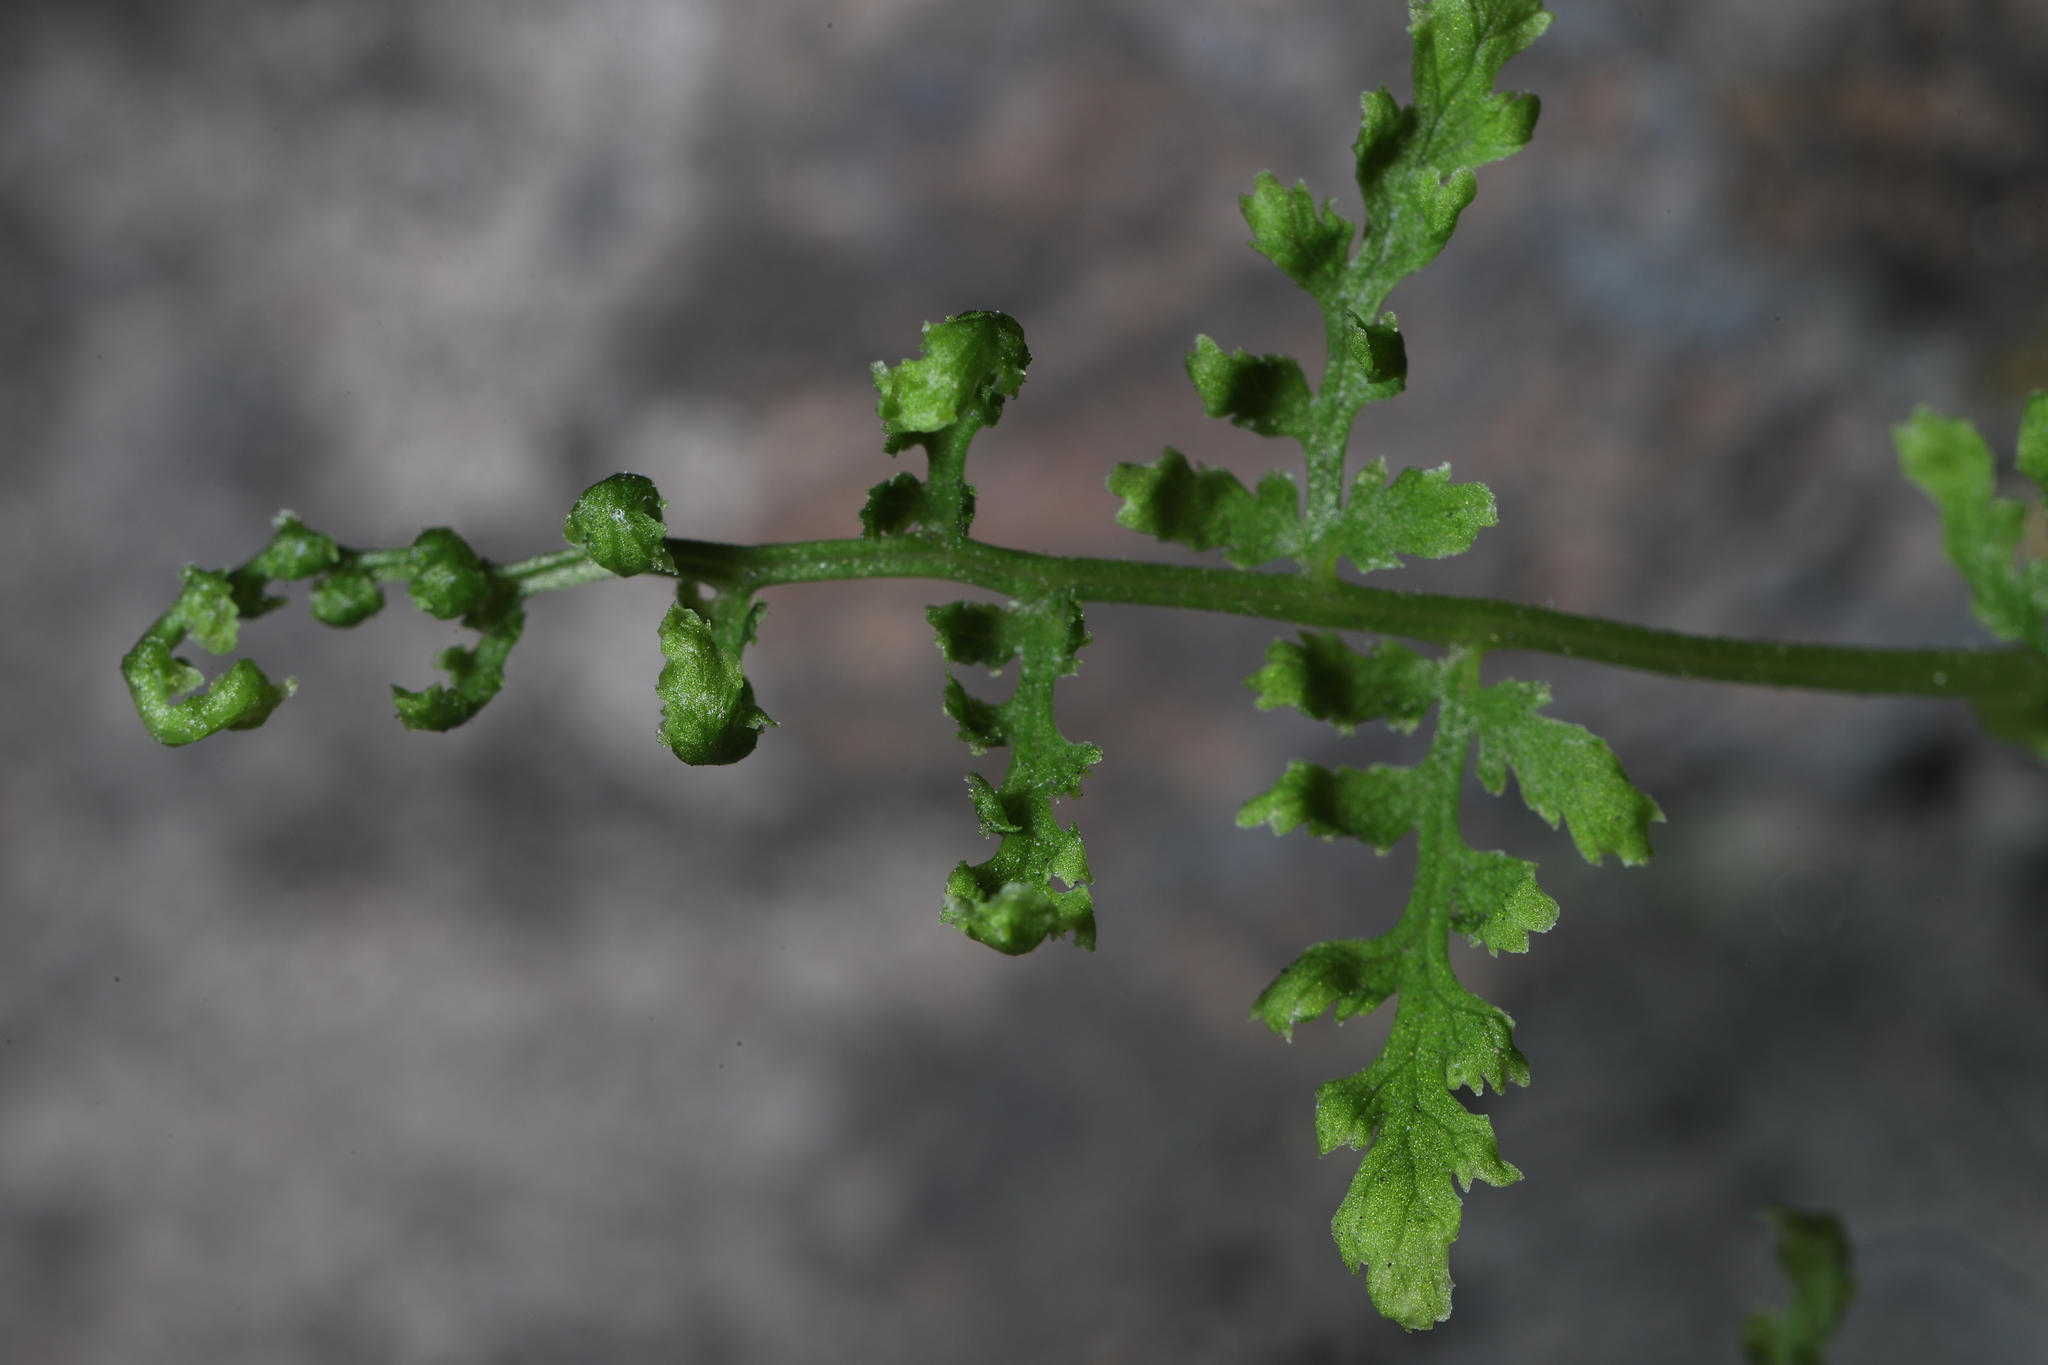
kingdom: Plantae
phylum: Tracheophyta
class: Polypodiopsida
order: Polypodiales
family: Woodsiaceae
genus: Physematium
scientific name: Physematium obtusum
